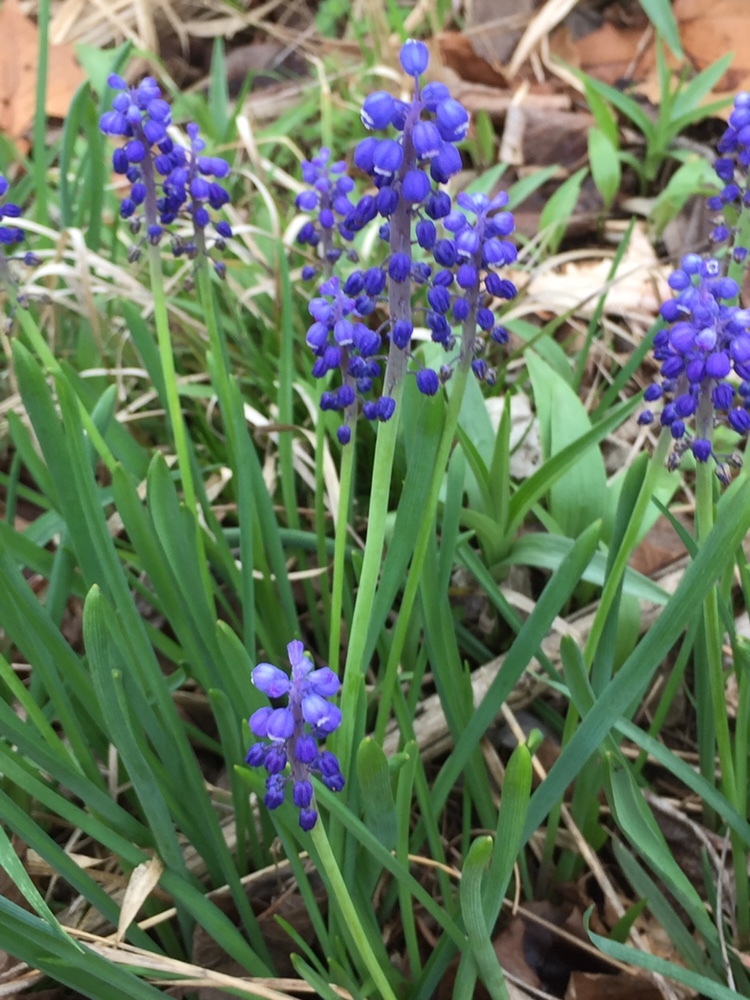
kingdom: Plantae
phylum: Tracheophyta
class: Liliopsida
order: Asparagales
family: Asparagaceae
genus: Muscari
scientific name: Muscari botryoides
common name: Compact grape-hyacinth
